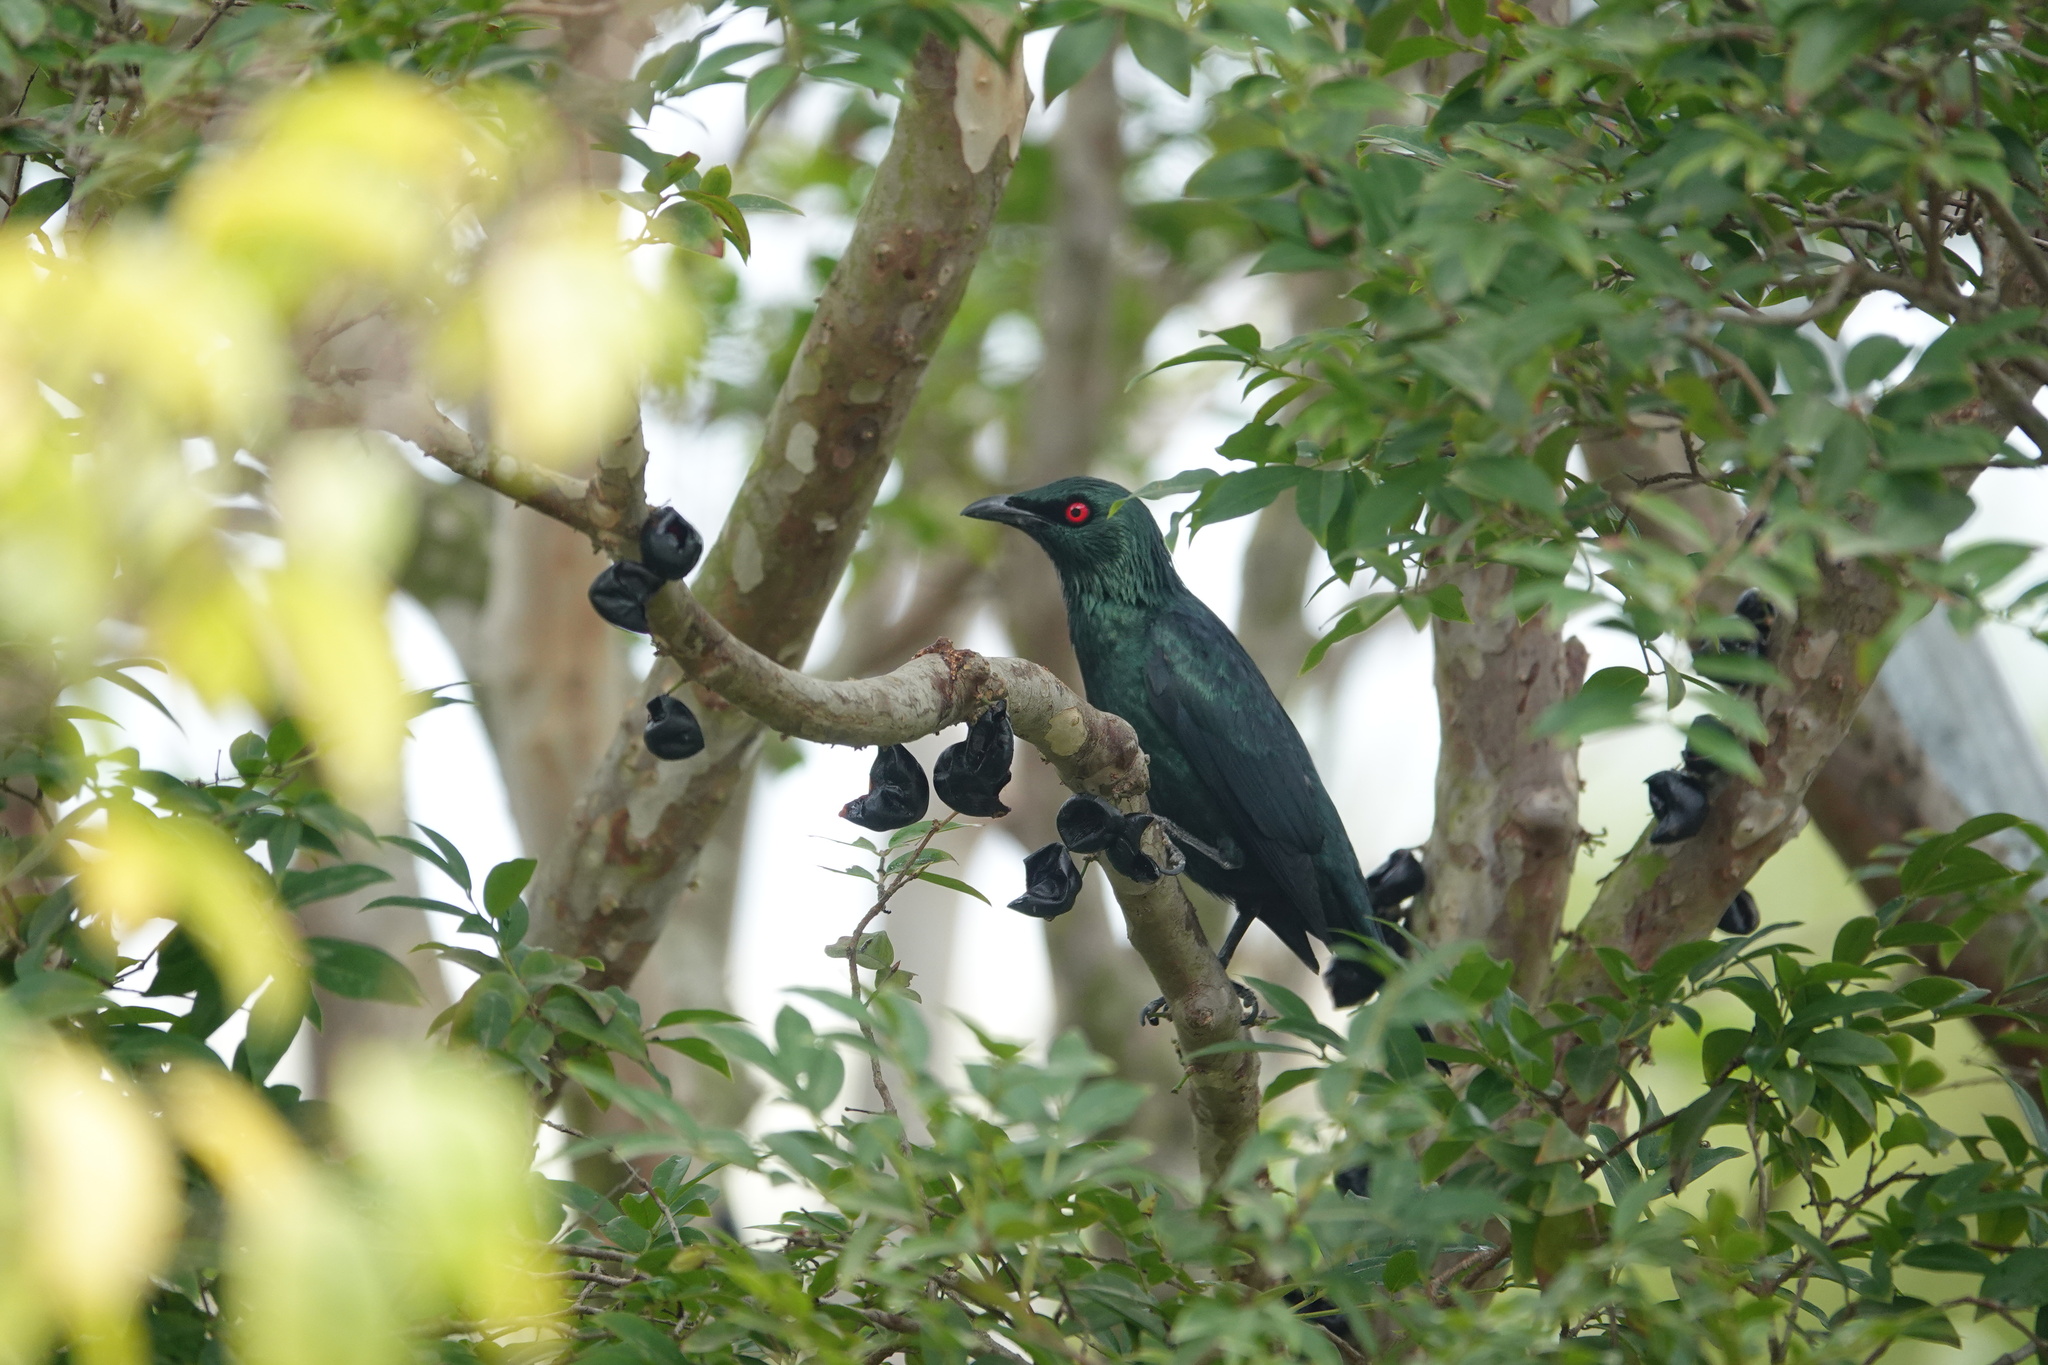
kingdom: Animalia
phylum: Chordata
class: Aves
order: Passeriformes
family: Sturnidae
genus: Aplonis
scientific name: Aplonis panayensis
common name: Asian glossy starling
